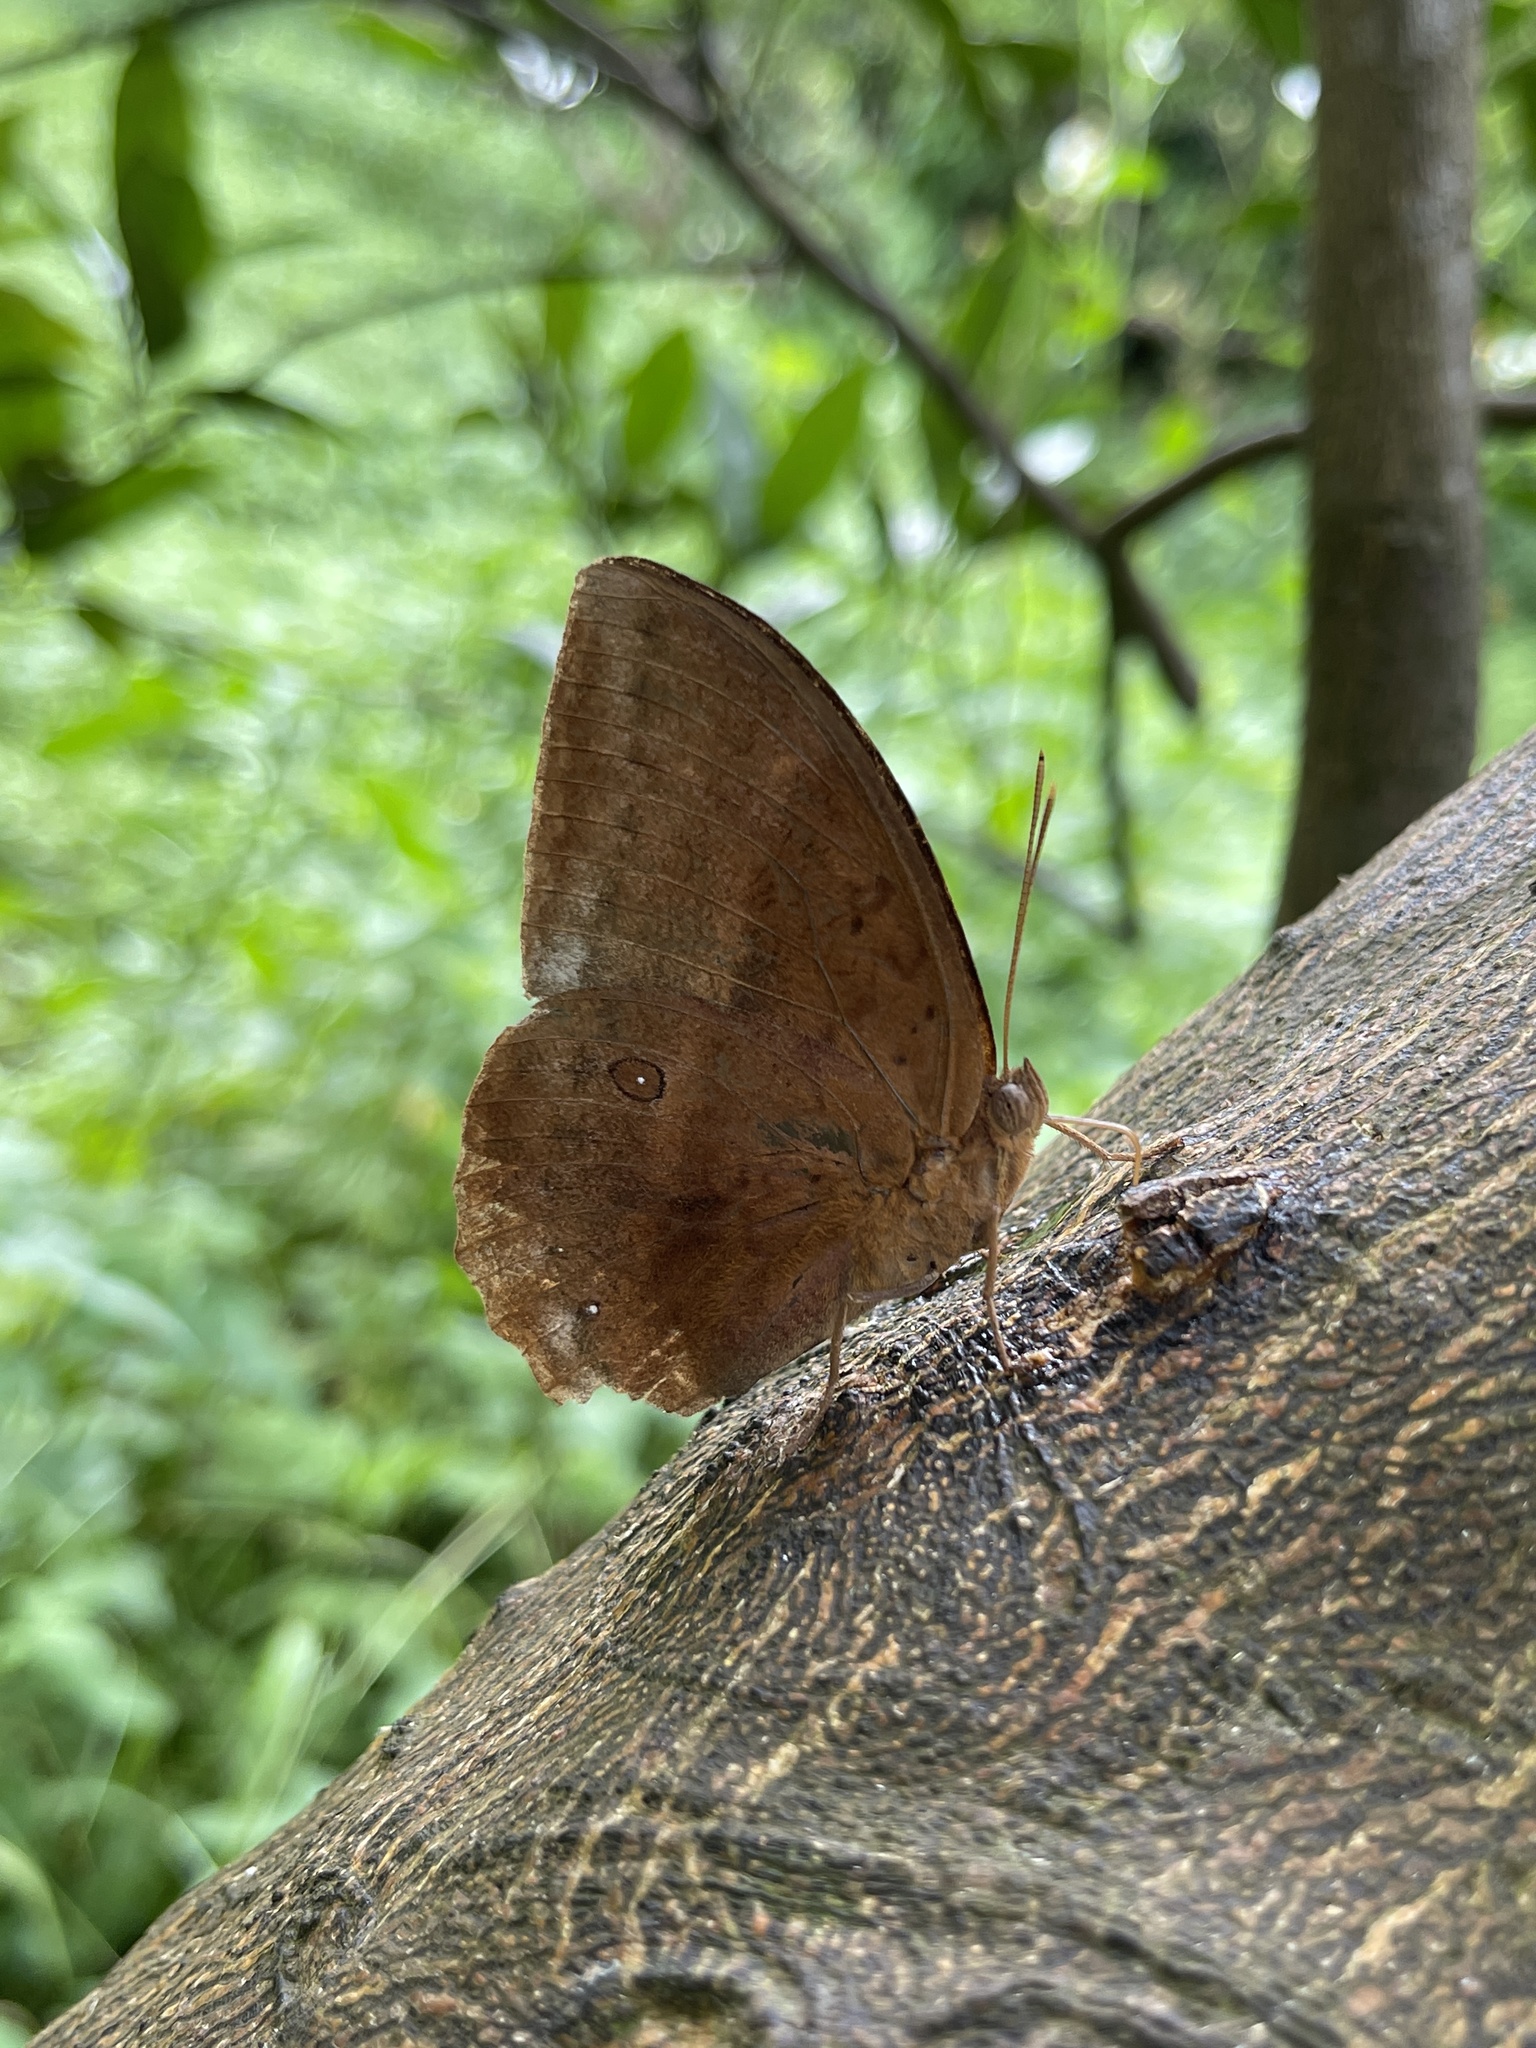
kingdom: Animalia
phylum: Arthropoda
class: Insecta
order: Lepidoptera
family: Nymphalidae
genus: Discophora
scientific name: Discophora sondaica
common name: Common duffer
